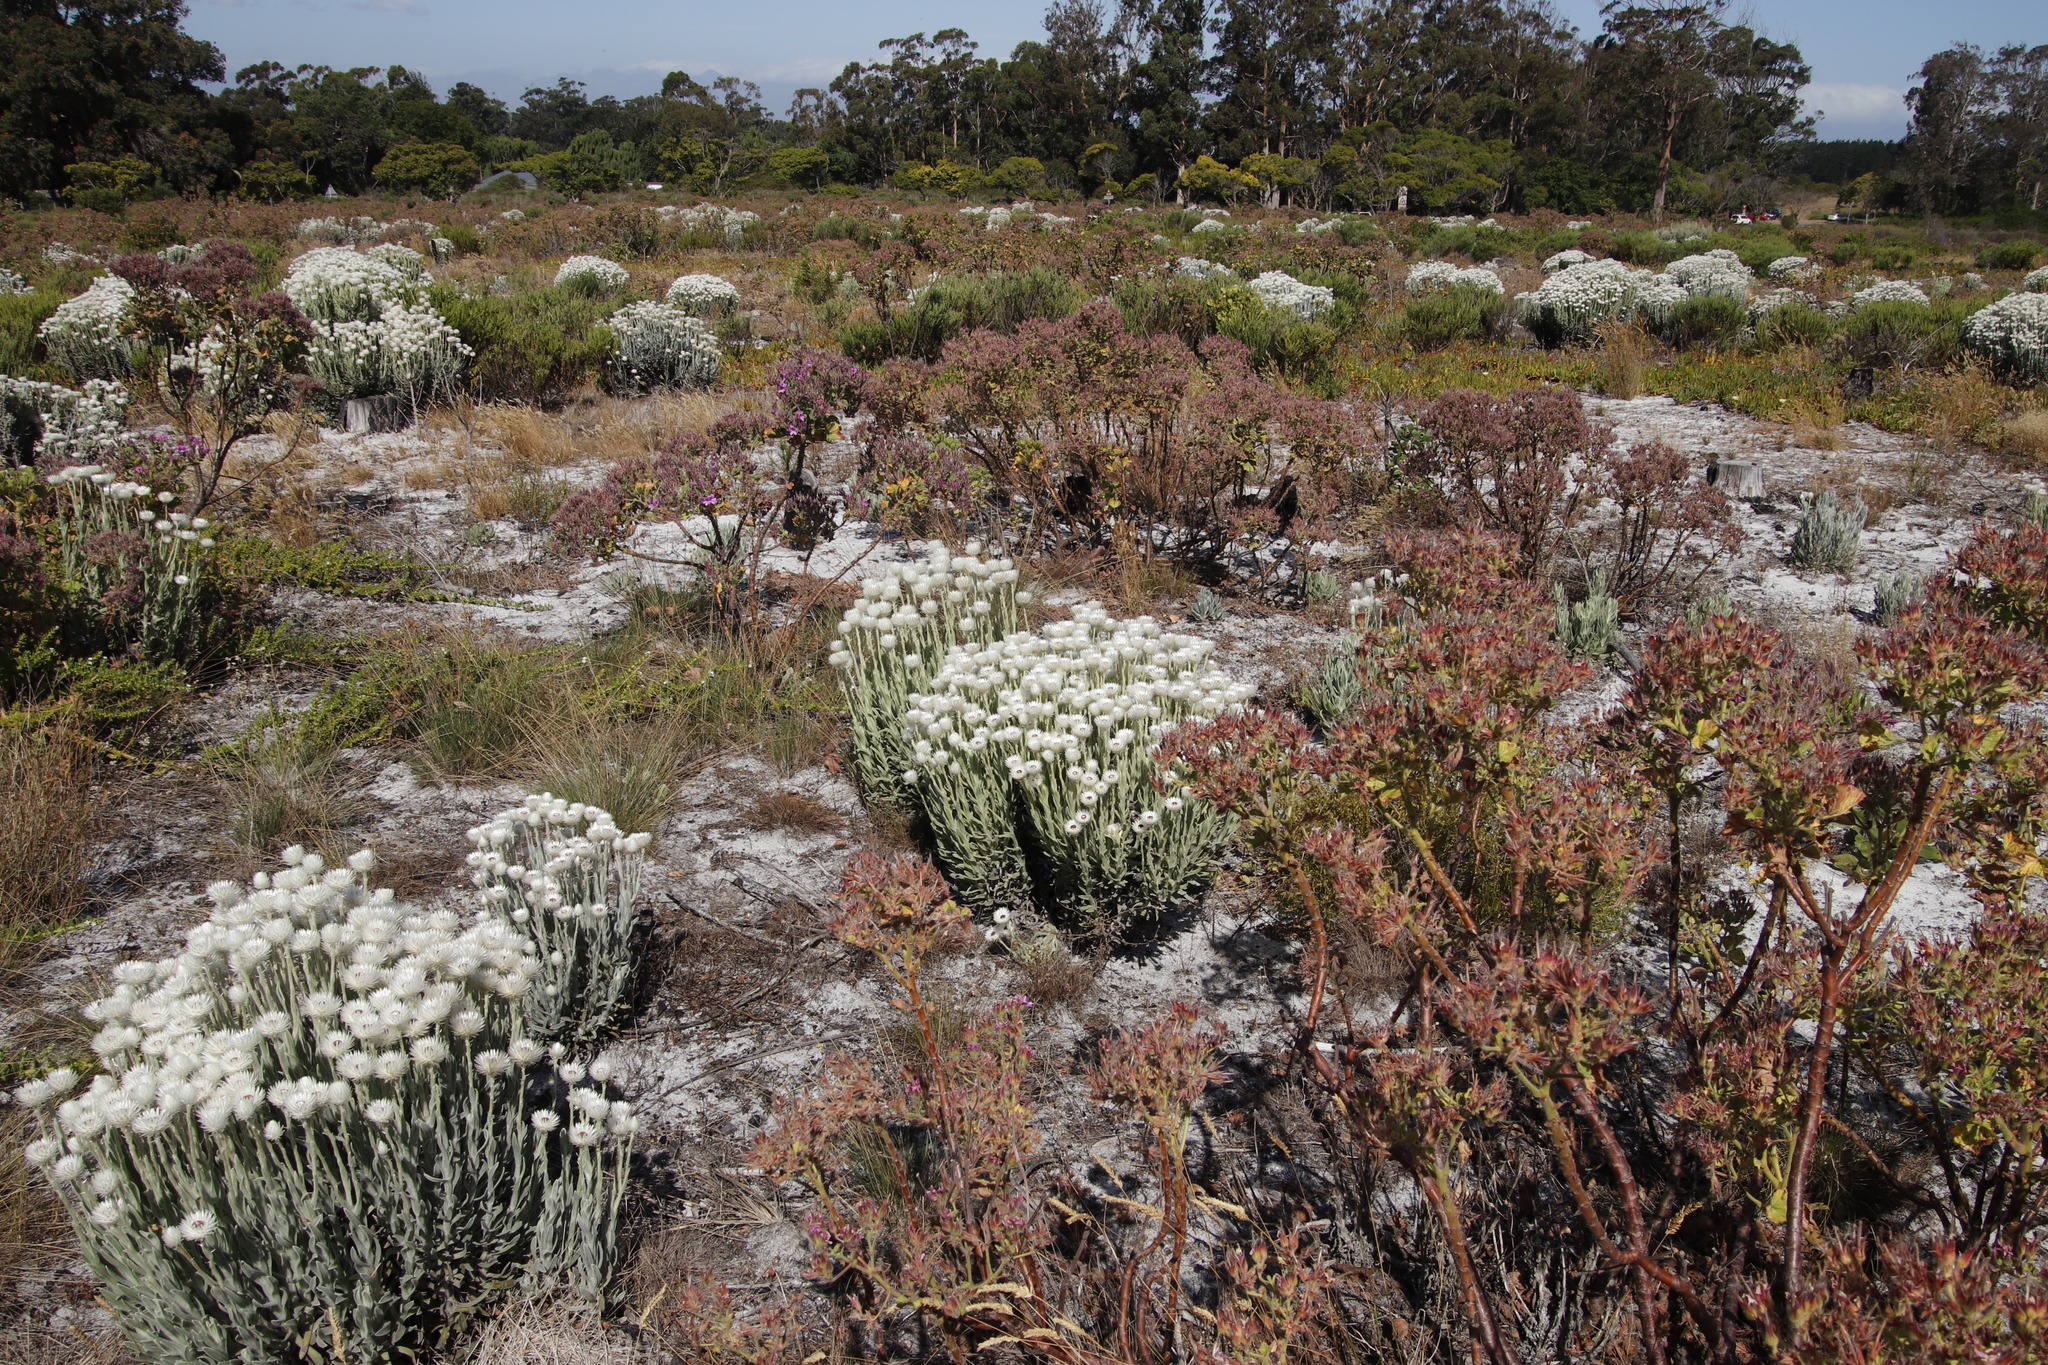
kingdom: Plantae
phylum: Tracheophyta
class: Magnoliopsida
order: Geraniales
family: Geraniaceae
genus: Pelargonium
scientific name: Pelargonium cucullatum
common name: Tree pelargonium
